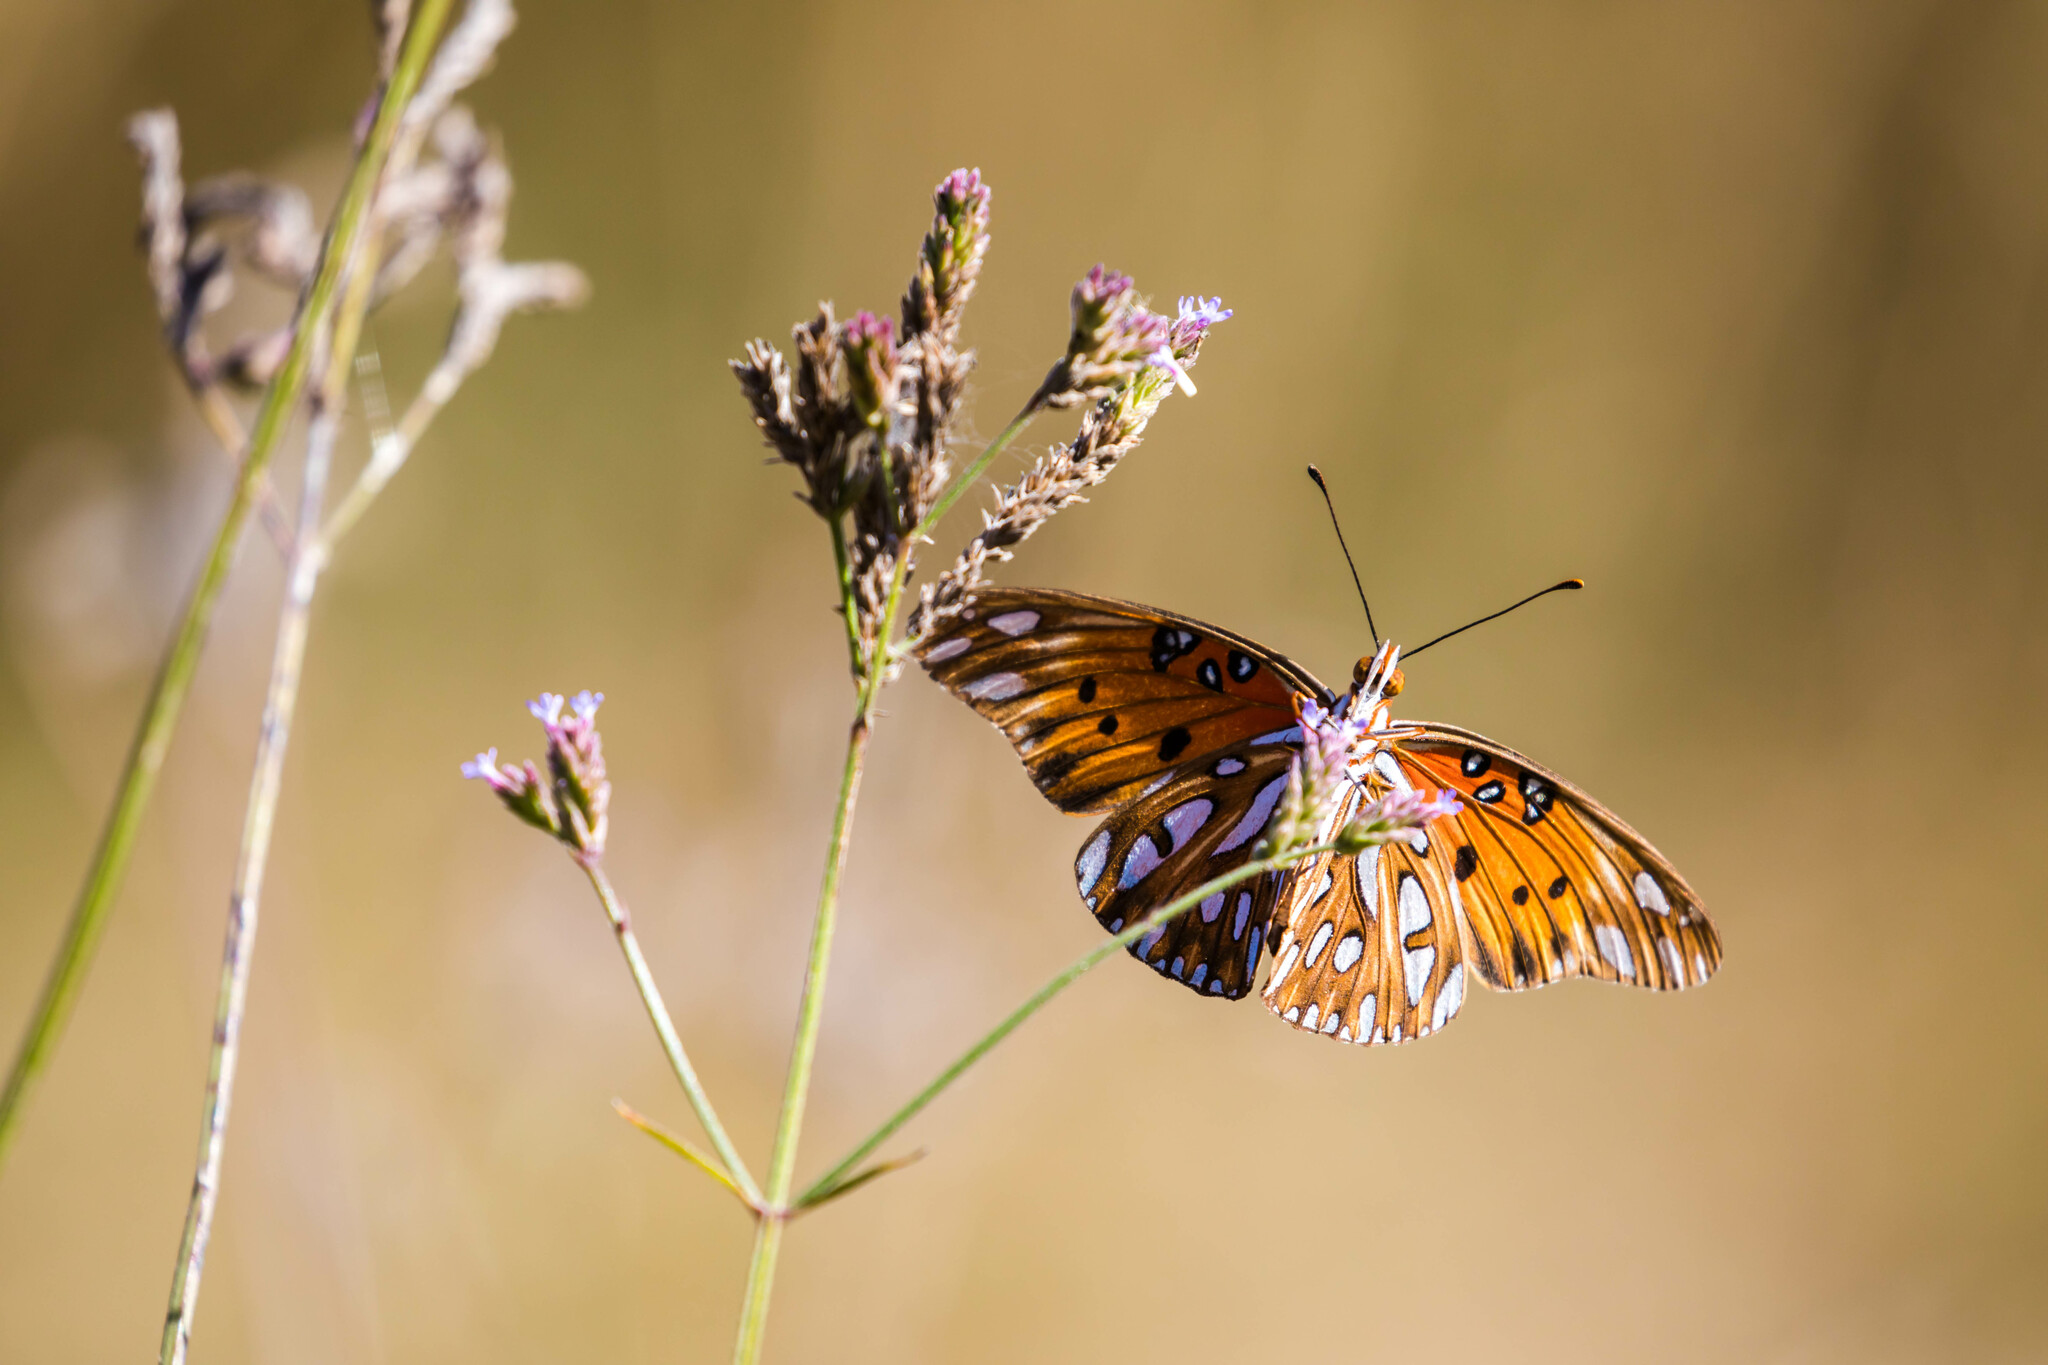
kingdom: Animalia
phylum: Arthropoda
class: Insecta
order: Lepidoptera
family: Nymphalidae
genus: Dione
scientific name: Dione vanillae
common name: Gulf fritillary
